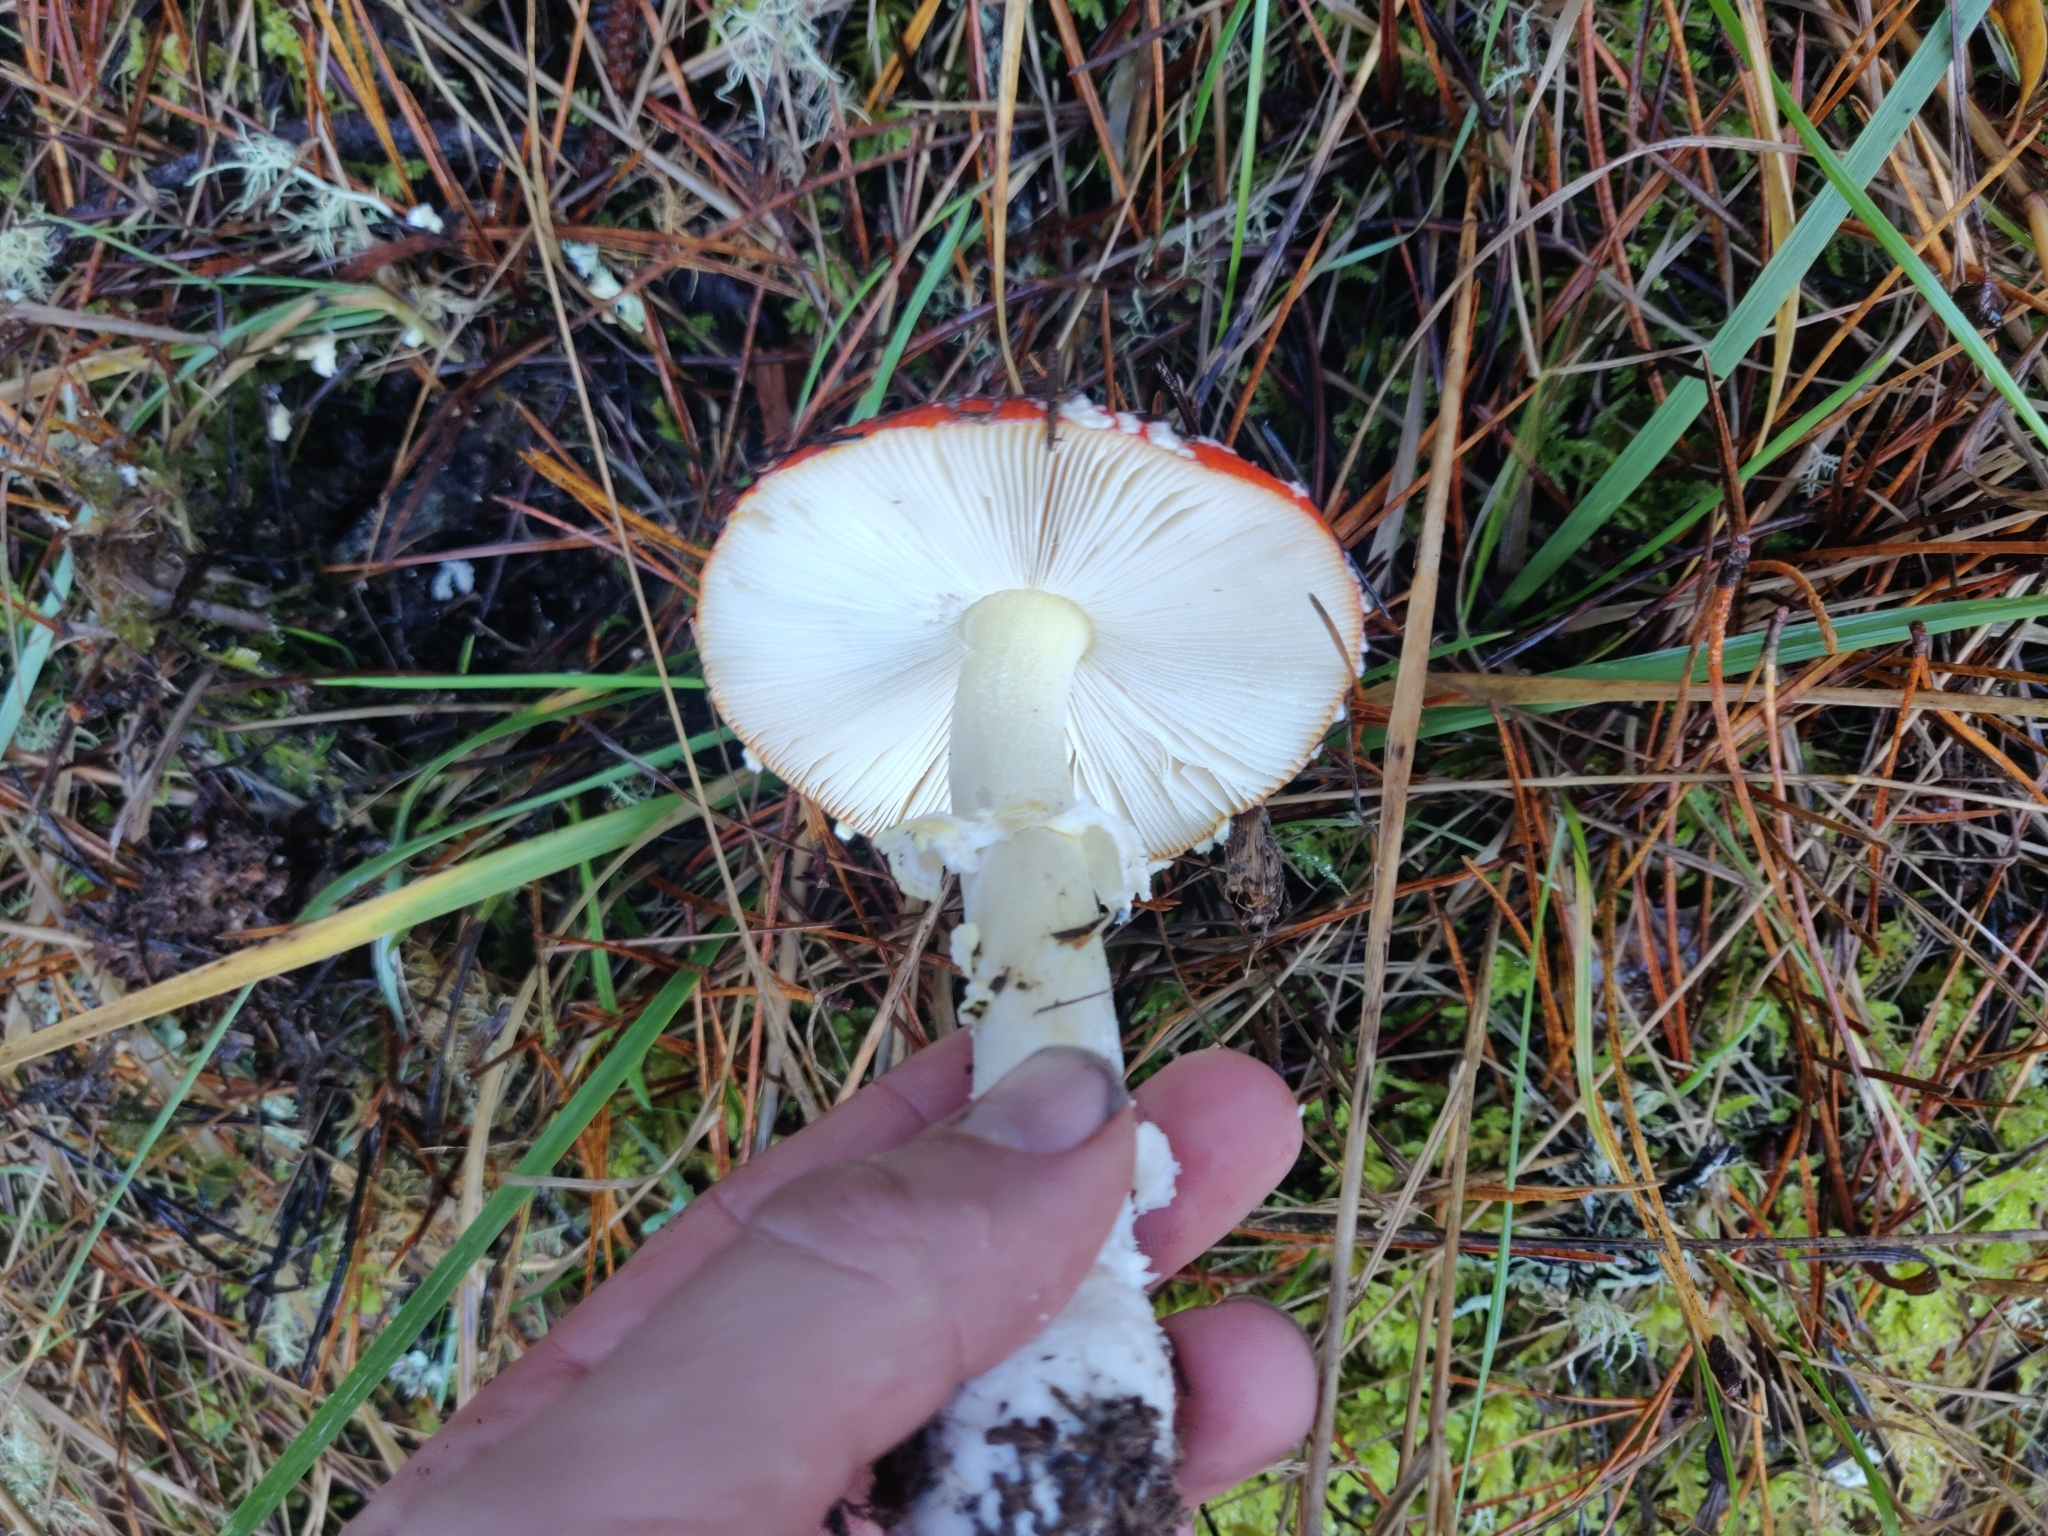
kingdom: Fungi
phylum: Basidiomycota
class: Agaricomycetes
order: Agaricales
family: Amanitaceae
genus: Amanita
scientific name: Amanita muscaria
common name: Fly agaric
